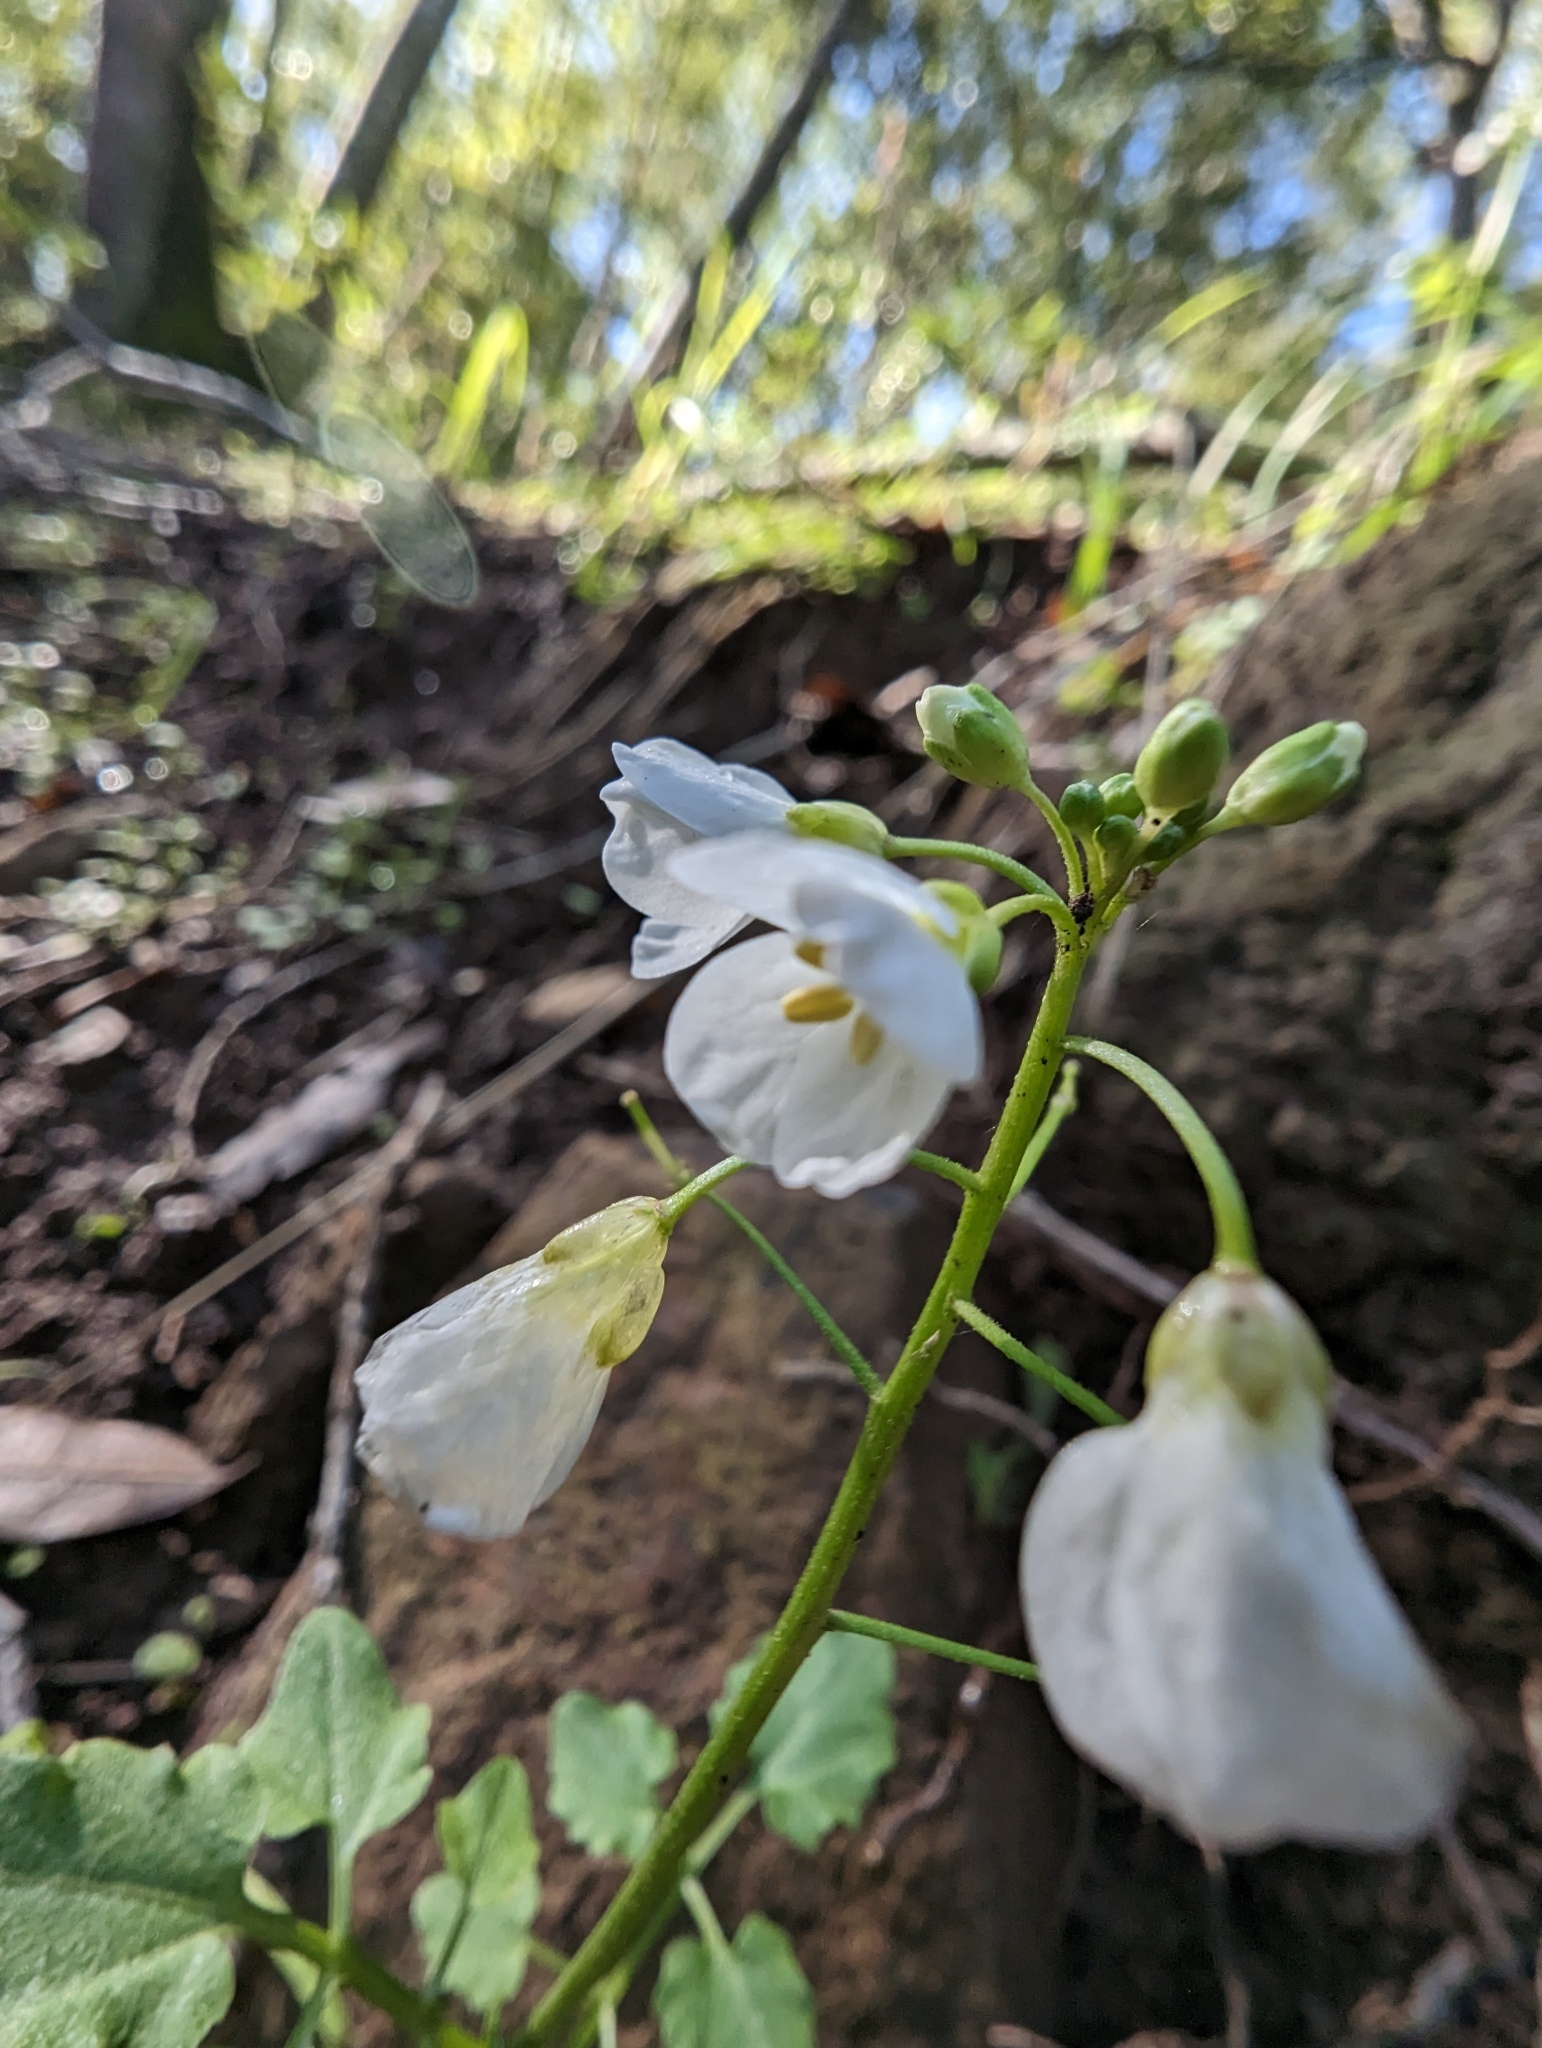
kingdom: Plantae
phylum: Tracheophyta
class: Magnoliopsida
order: Brassicales
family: Brassicaceae
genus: Cardamine
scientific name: Cardamine californica
